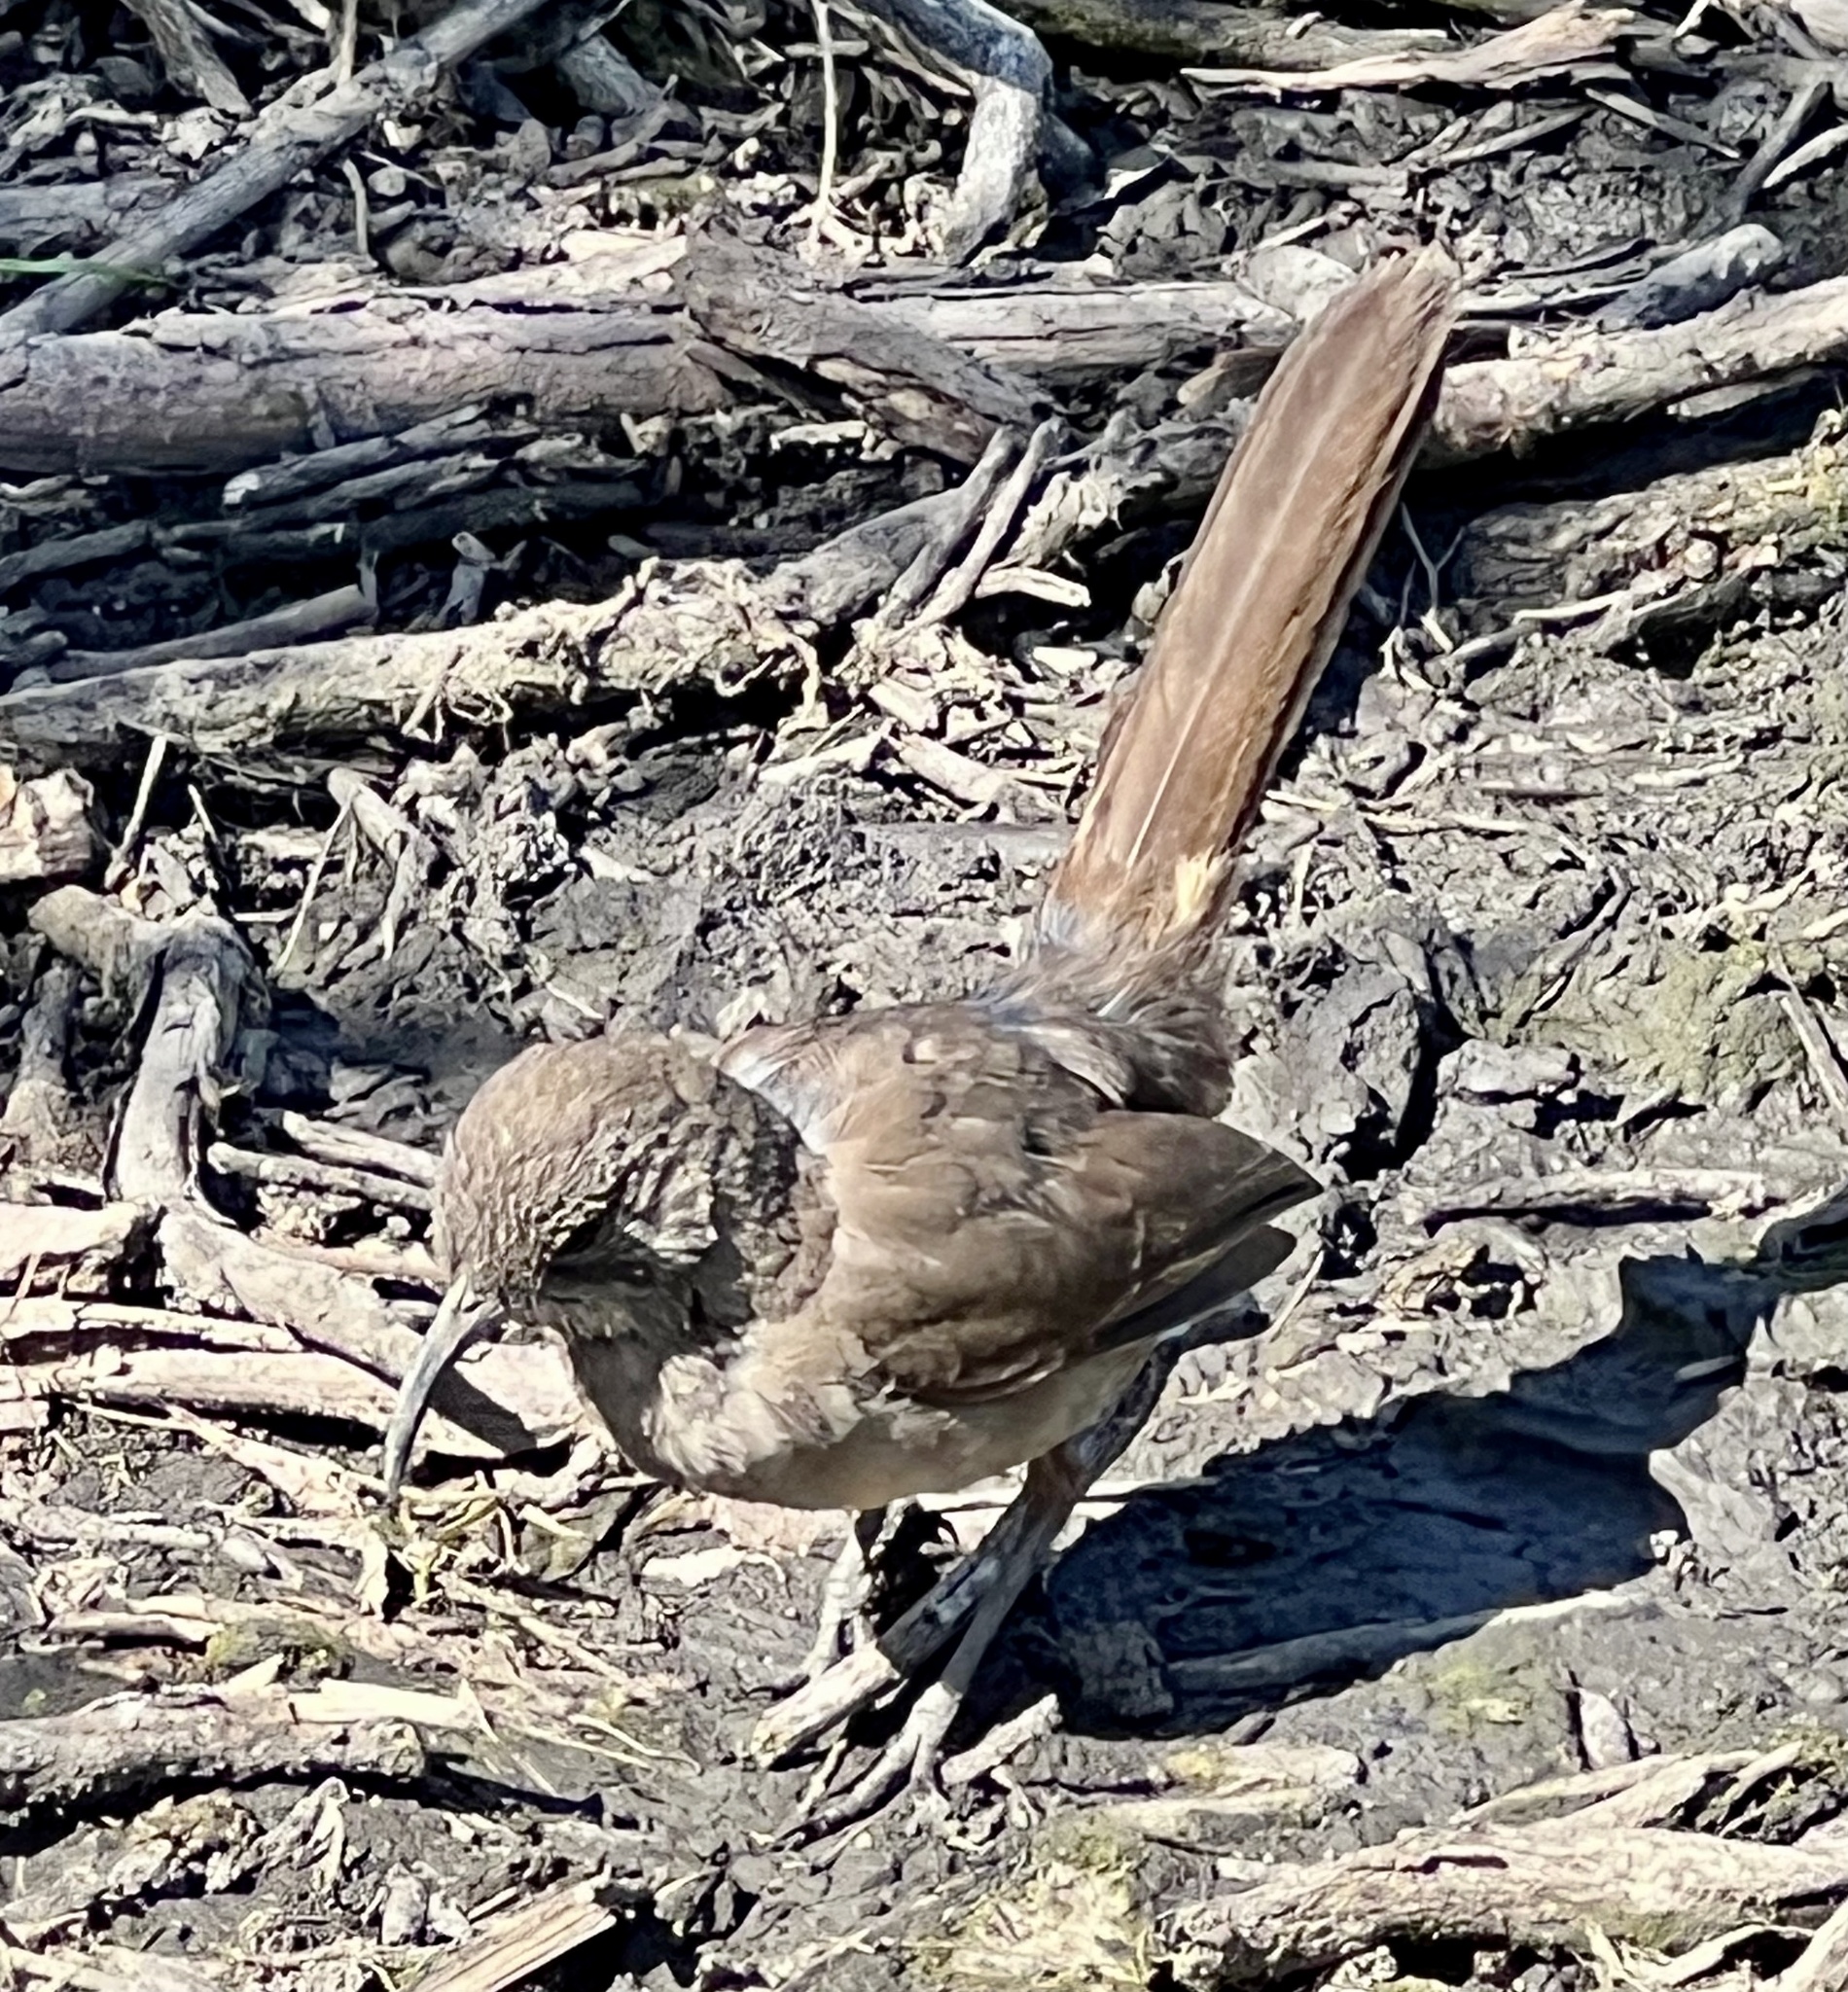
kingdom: Animalia
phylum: Chordata
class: Aves
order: Passeriformes
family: Mimidae
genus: Toxostoma
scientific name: Toxostoma redivivum
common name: California thrasher
